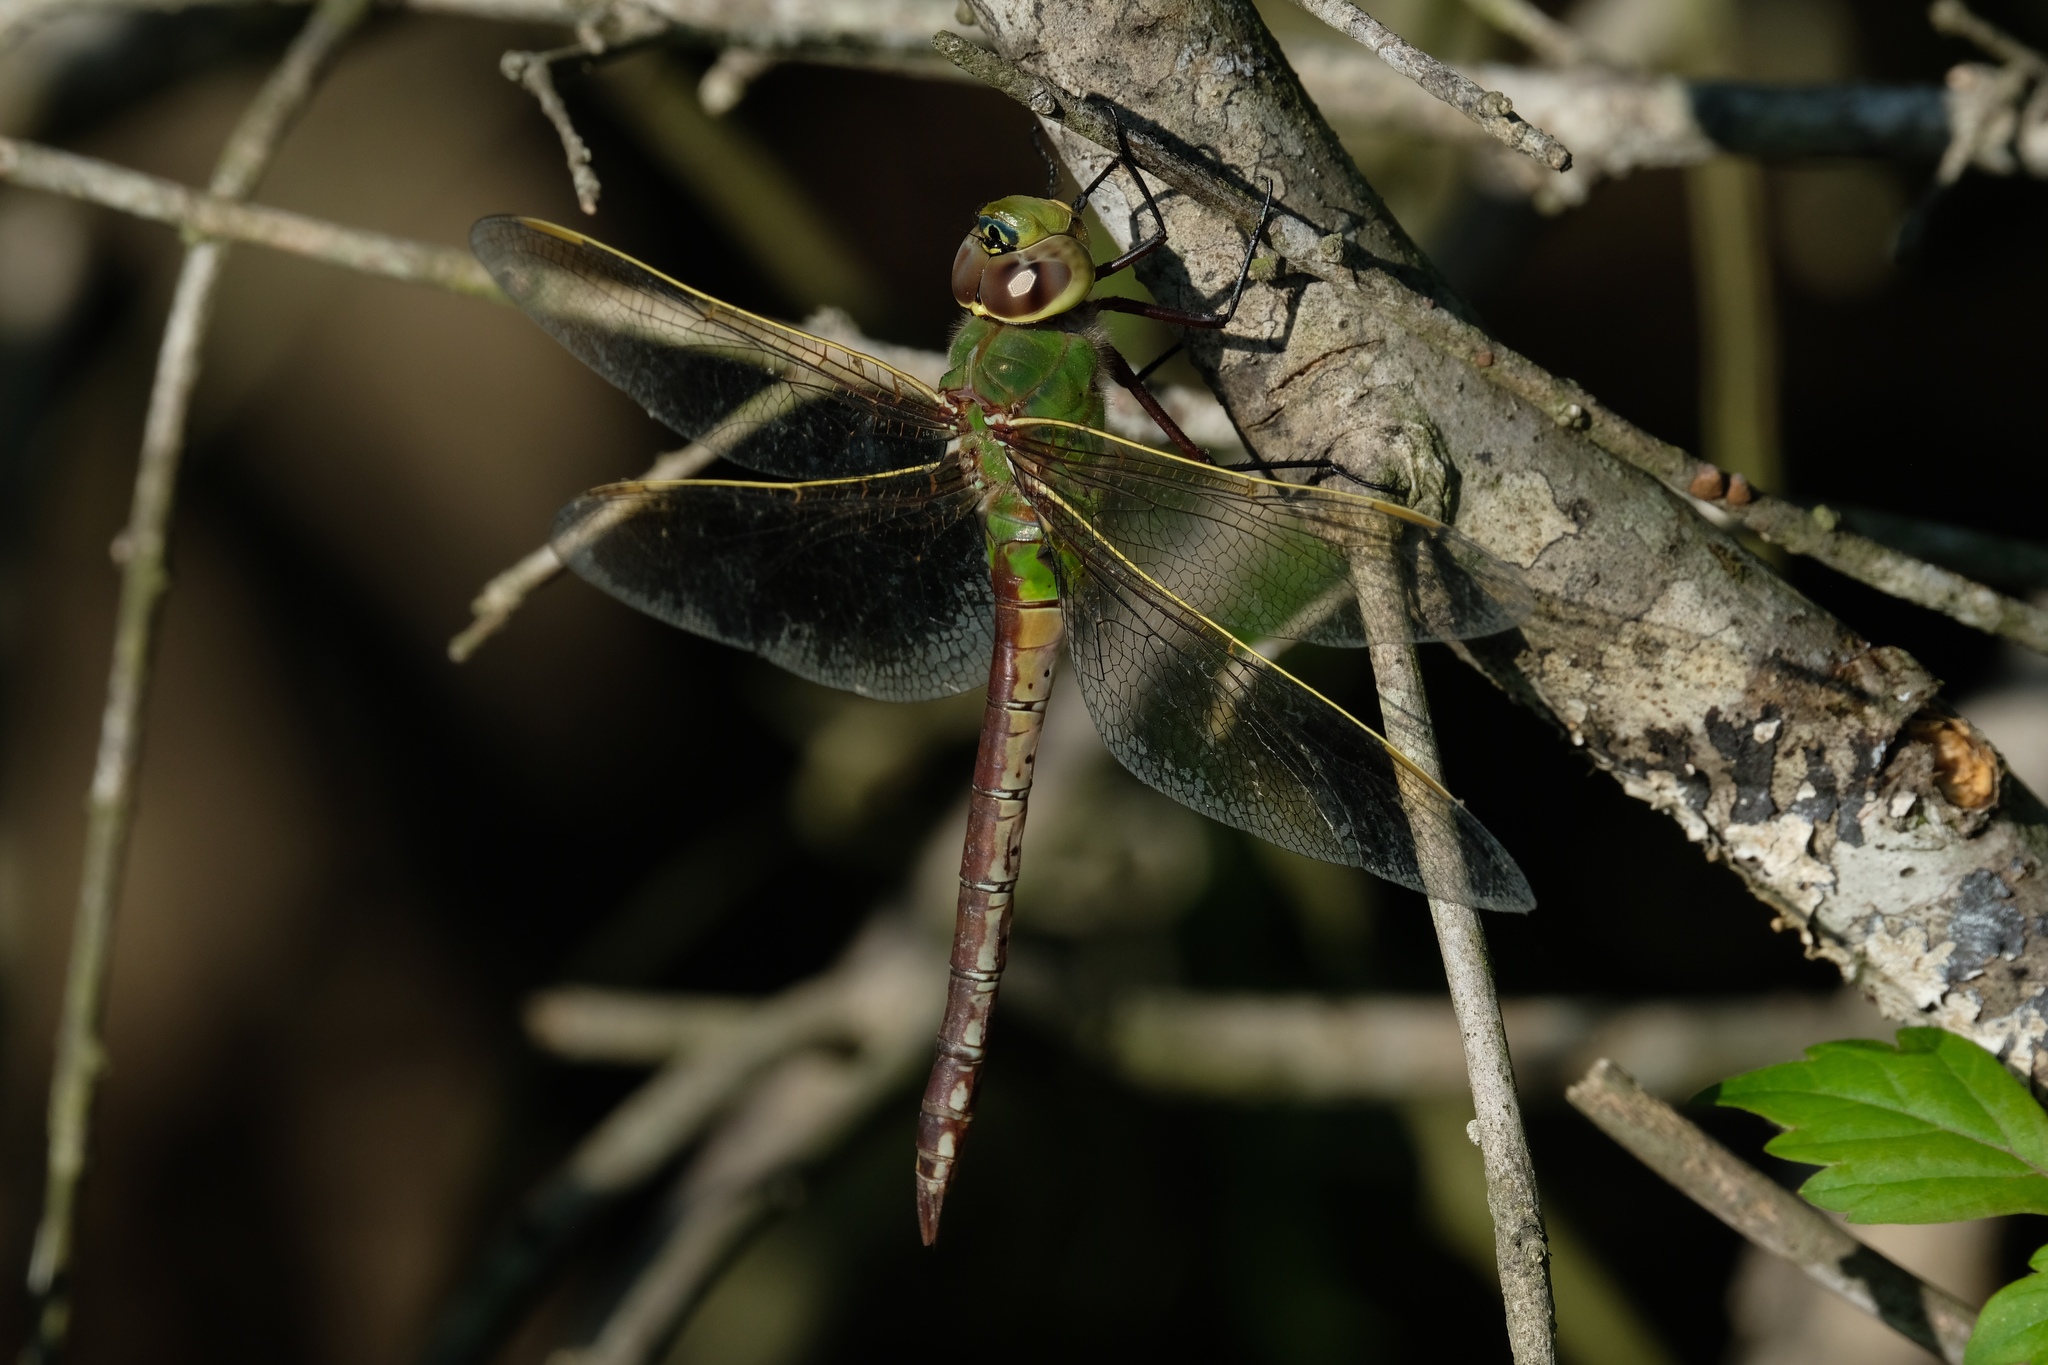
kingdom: Animalia
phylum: Arthropoda
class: Insecta
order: Odonata
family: Aeshnidae
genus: Anax
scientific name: Anax junius
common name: Common green darner
